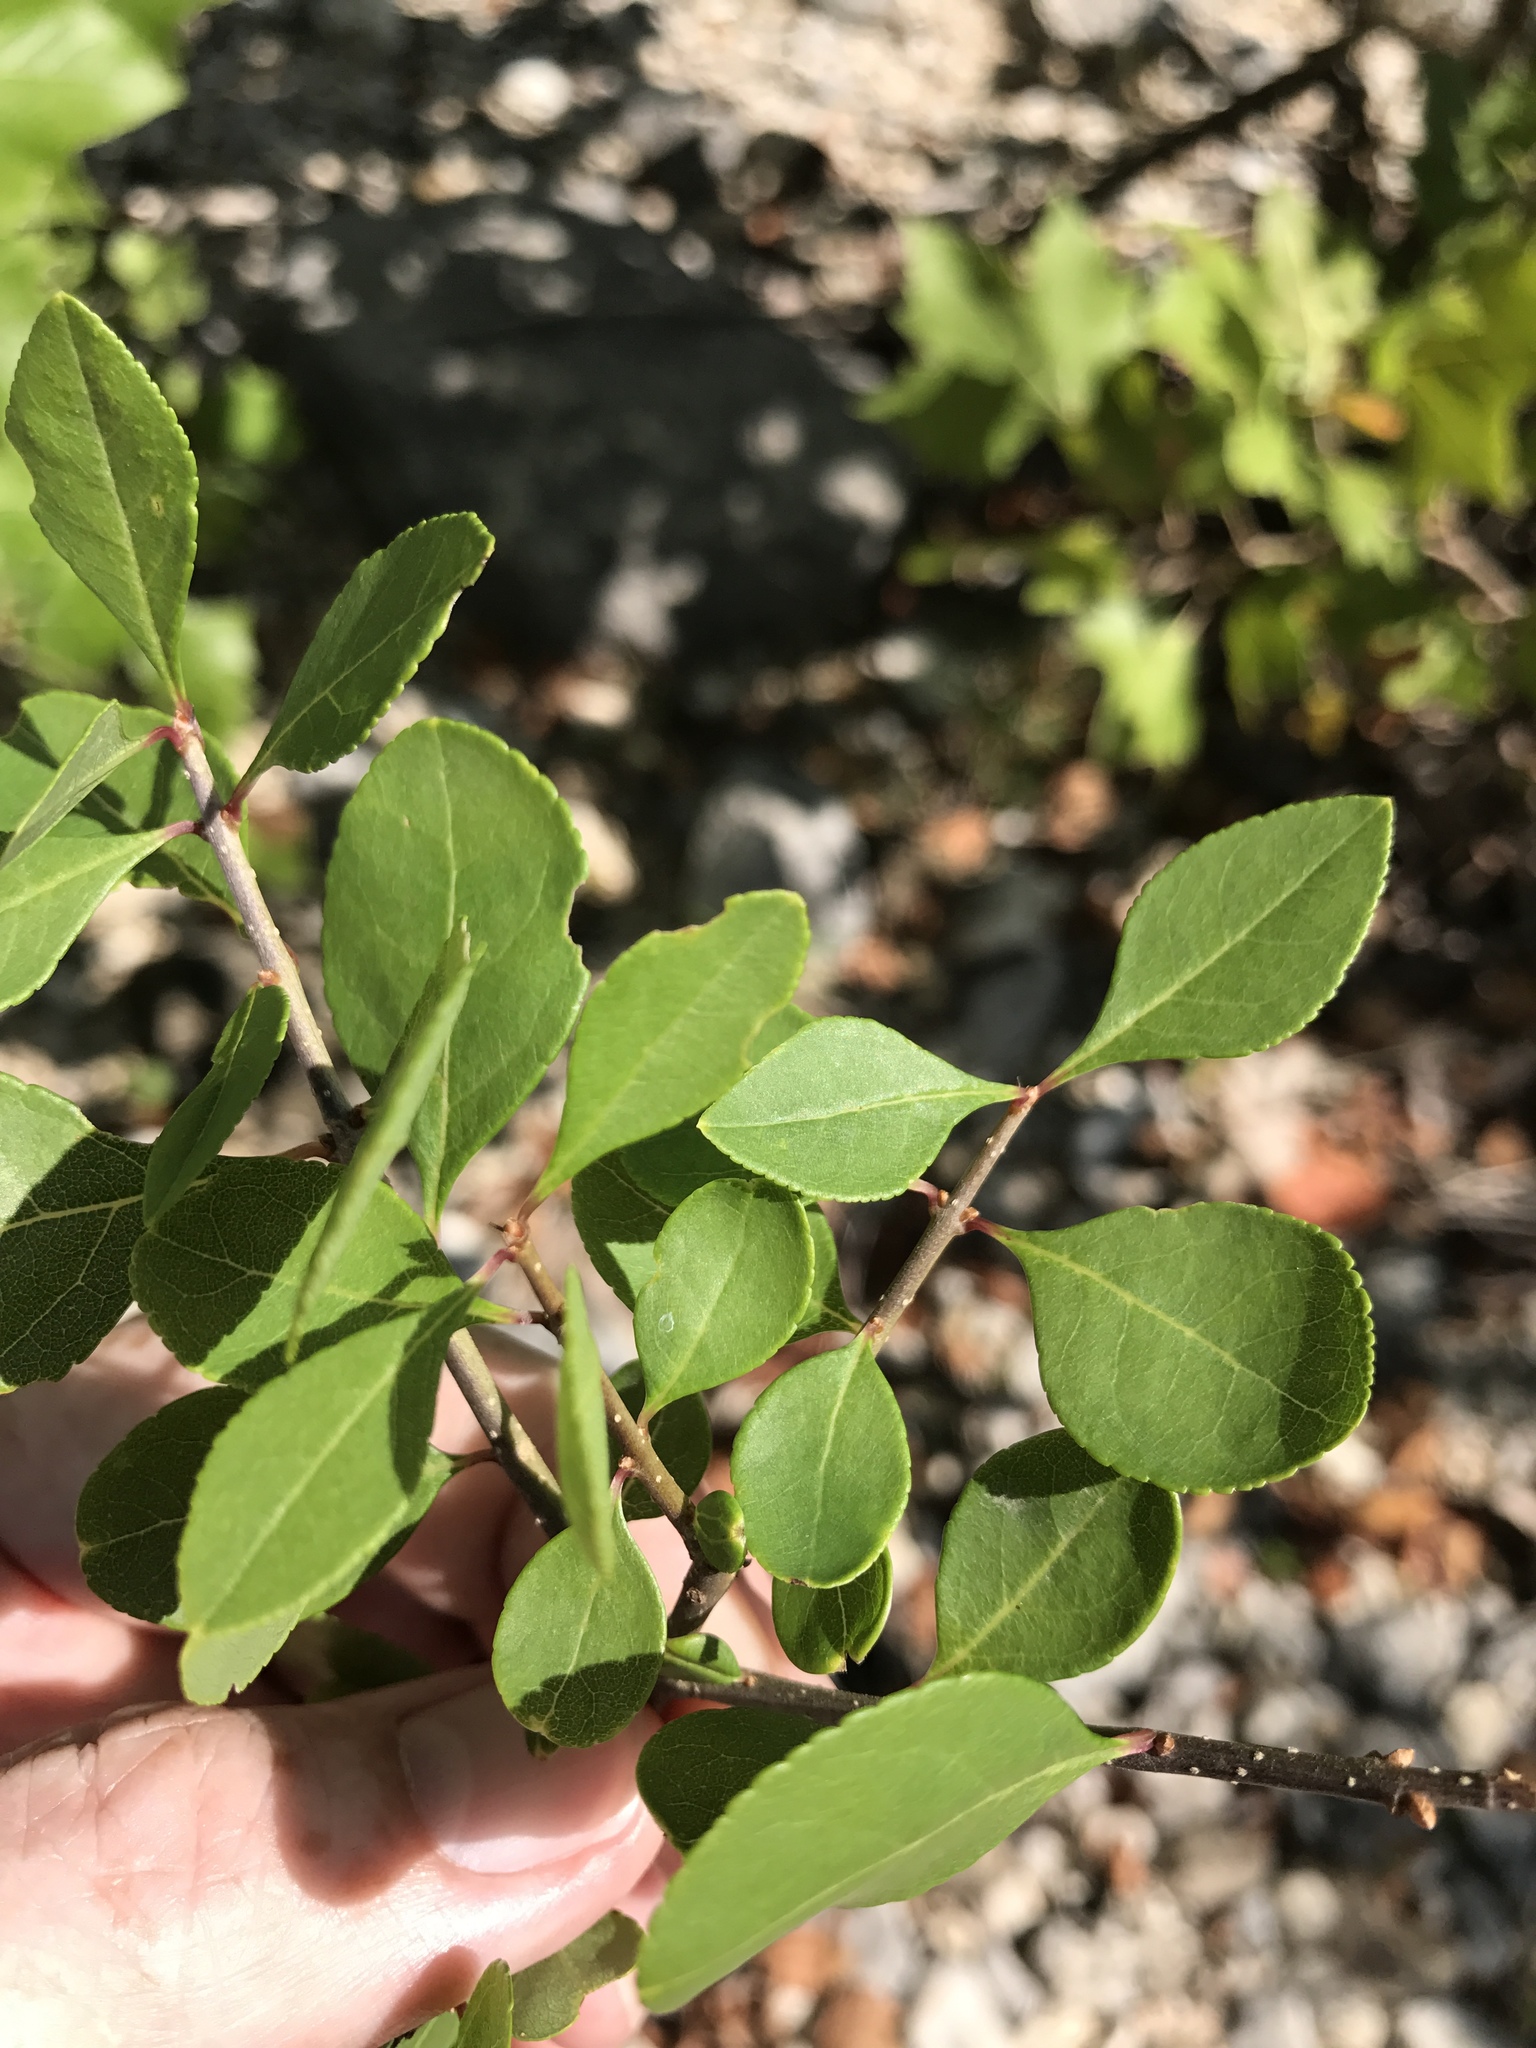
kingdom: Plantae
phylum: Tracheophyta
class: Magnoliopsida
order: Lamiales
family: Oleaceae
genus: Forestiera
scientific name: Forestiera pubescens
